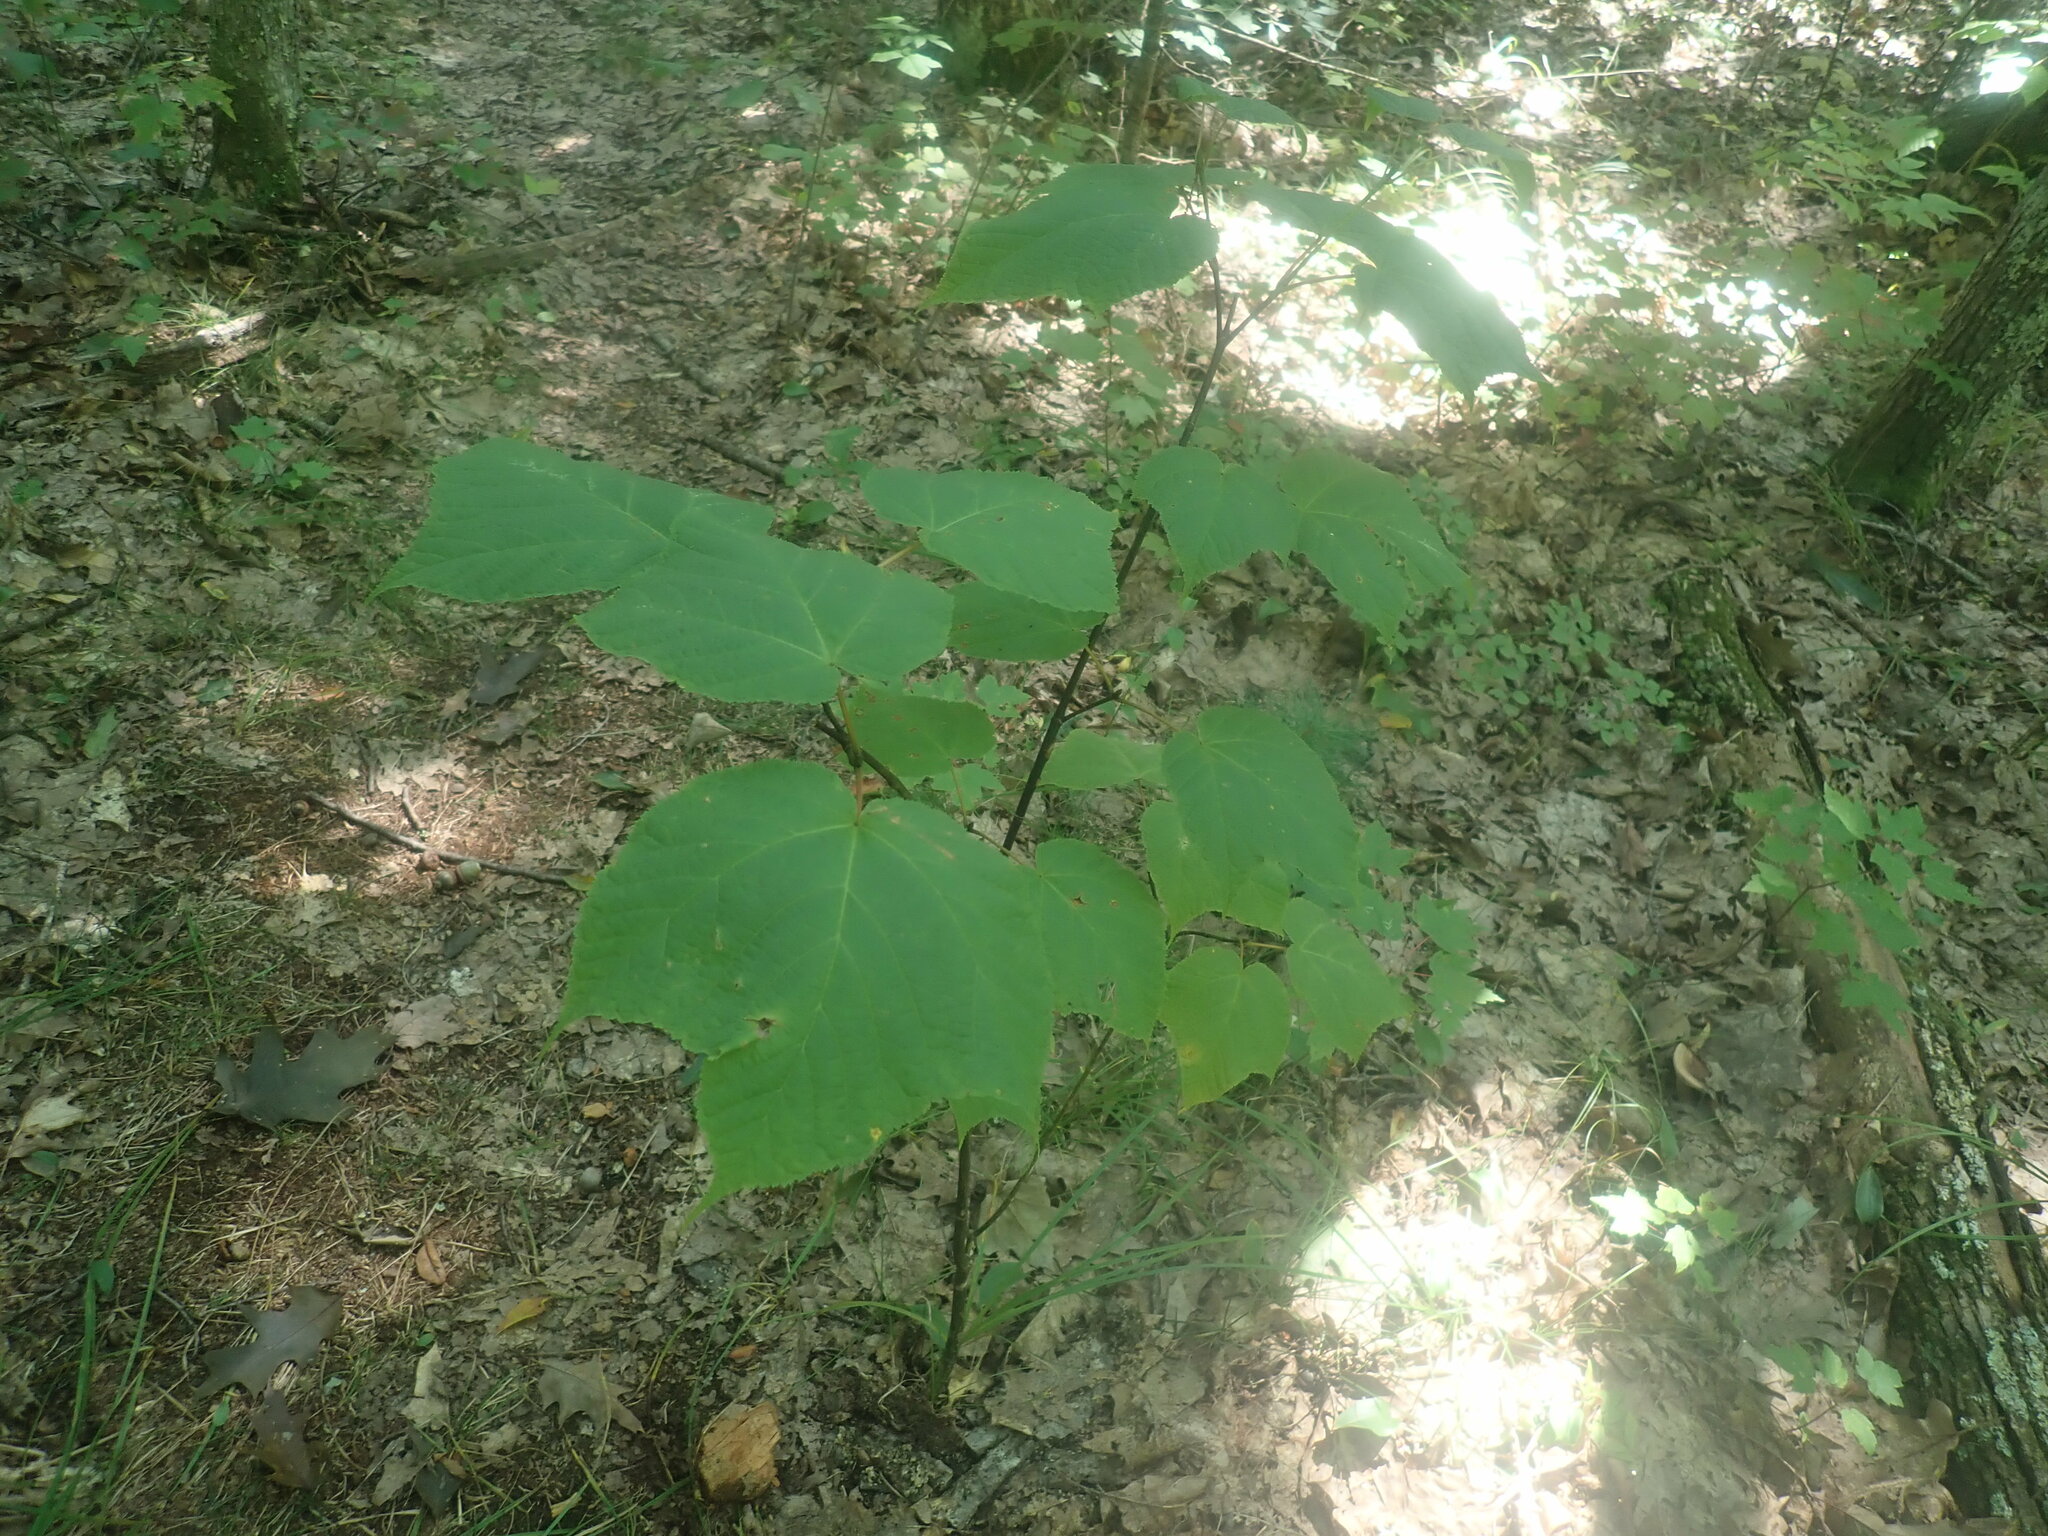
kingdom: Plantae
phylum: Tracheophyta
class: Magnoliopsida
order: Sapindales
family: Sapindaceae
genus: Acer
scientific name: Acer pensylvanicum
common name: Moosewood
